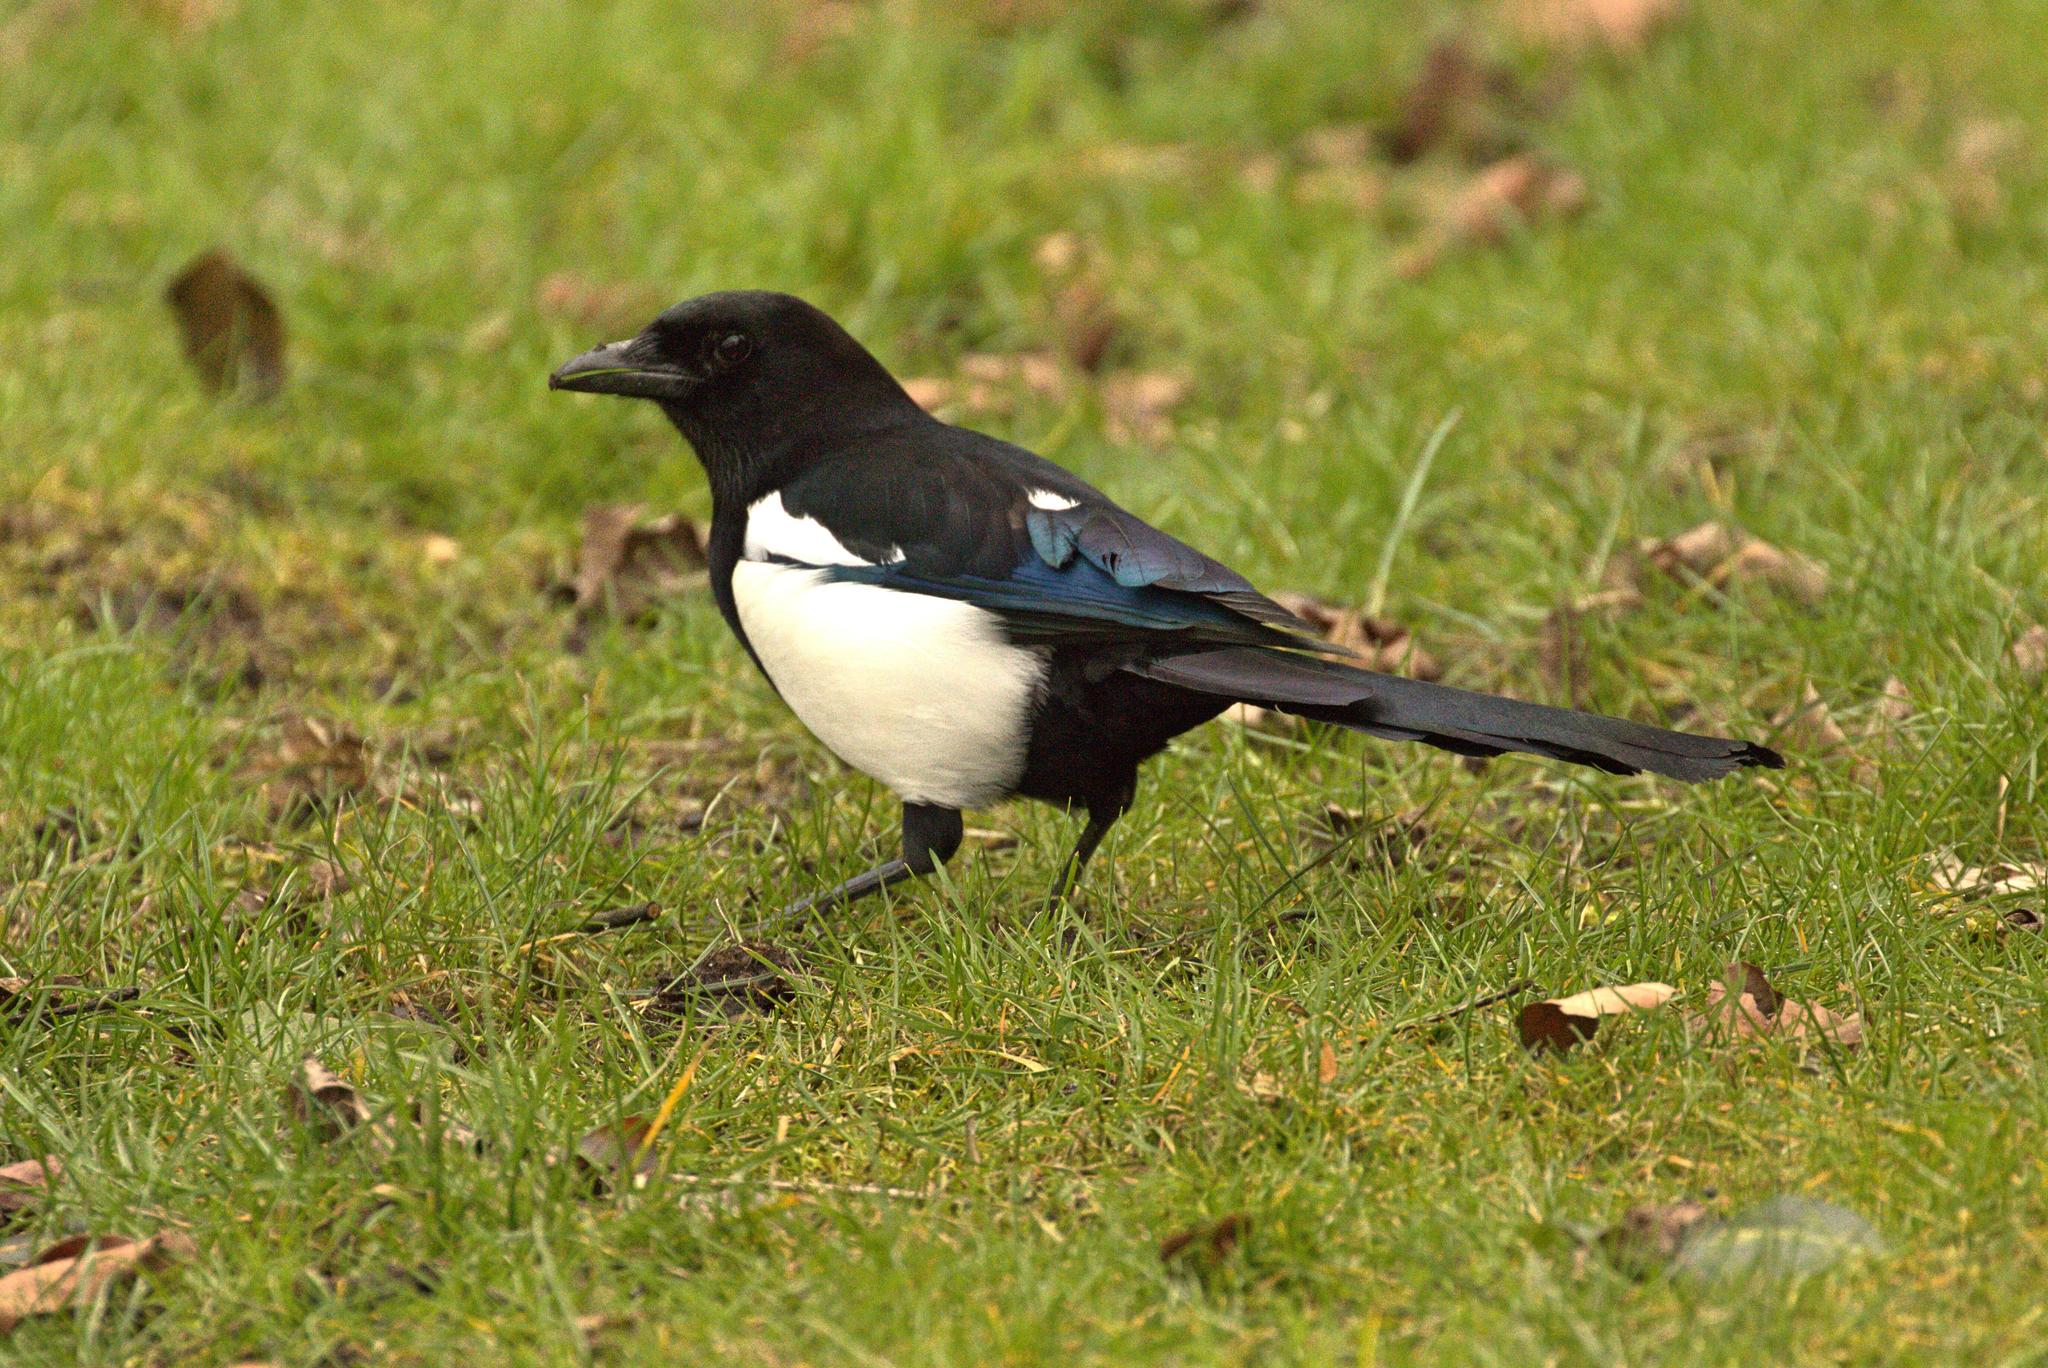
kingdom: Animalia
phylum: Chordata
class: Aves
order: Passeriformes
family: Corvidae
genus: Pica
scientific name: Pica pica
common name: Eurasian magpie
